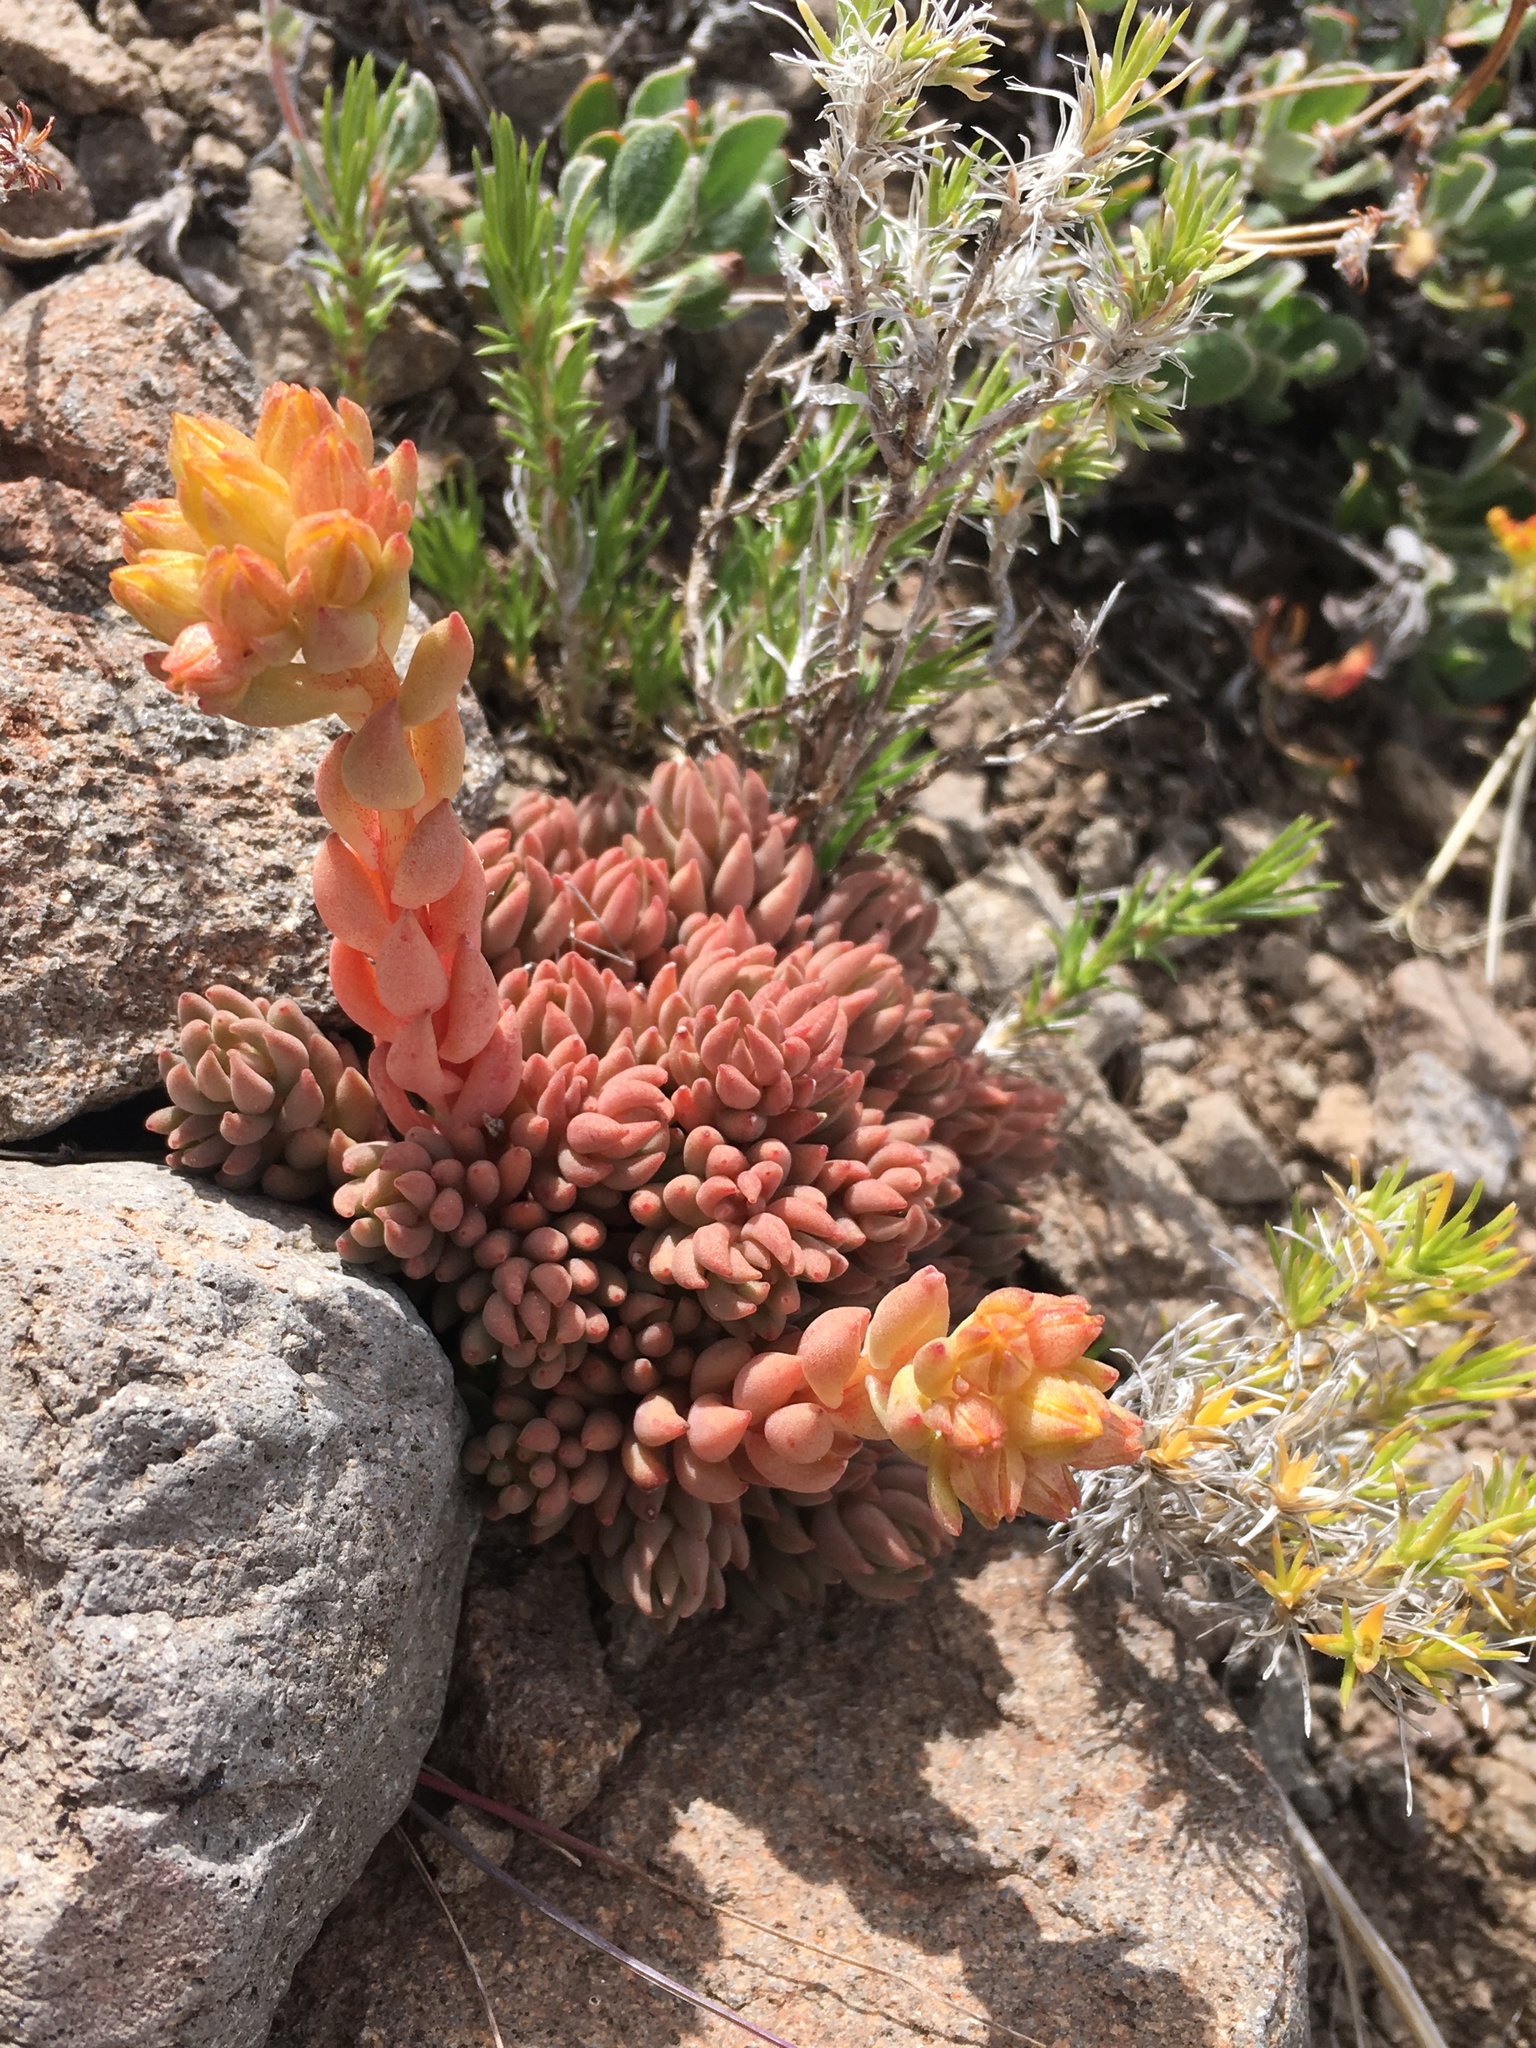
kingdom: Plantae
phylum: Tracheophyta
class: Magnoliopsida
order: Saxifragales
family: Crassulaceae
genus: Sedum
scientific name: Sedum lanceolatum
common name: Common stonecrop
